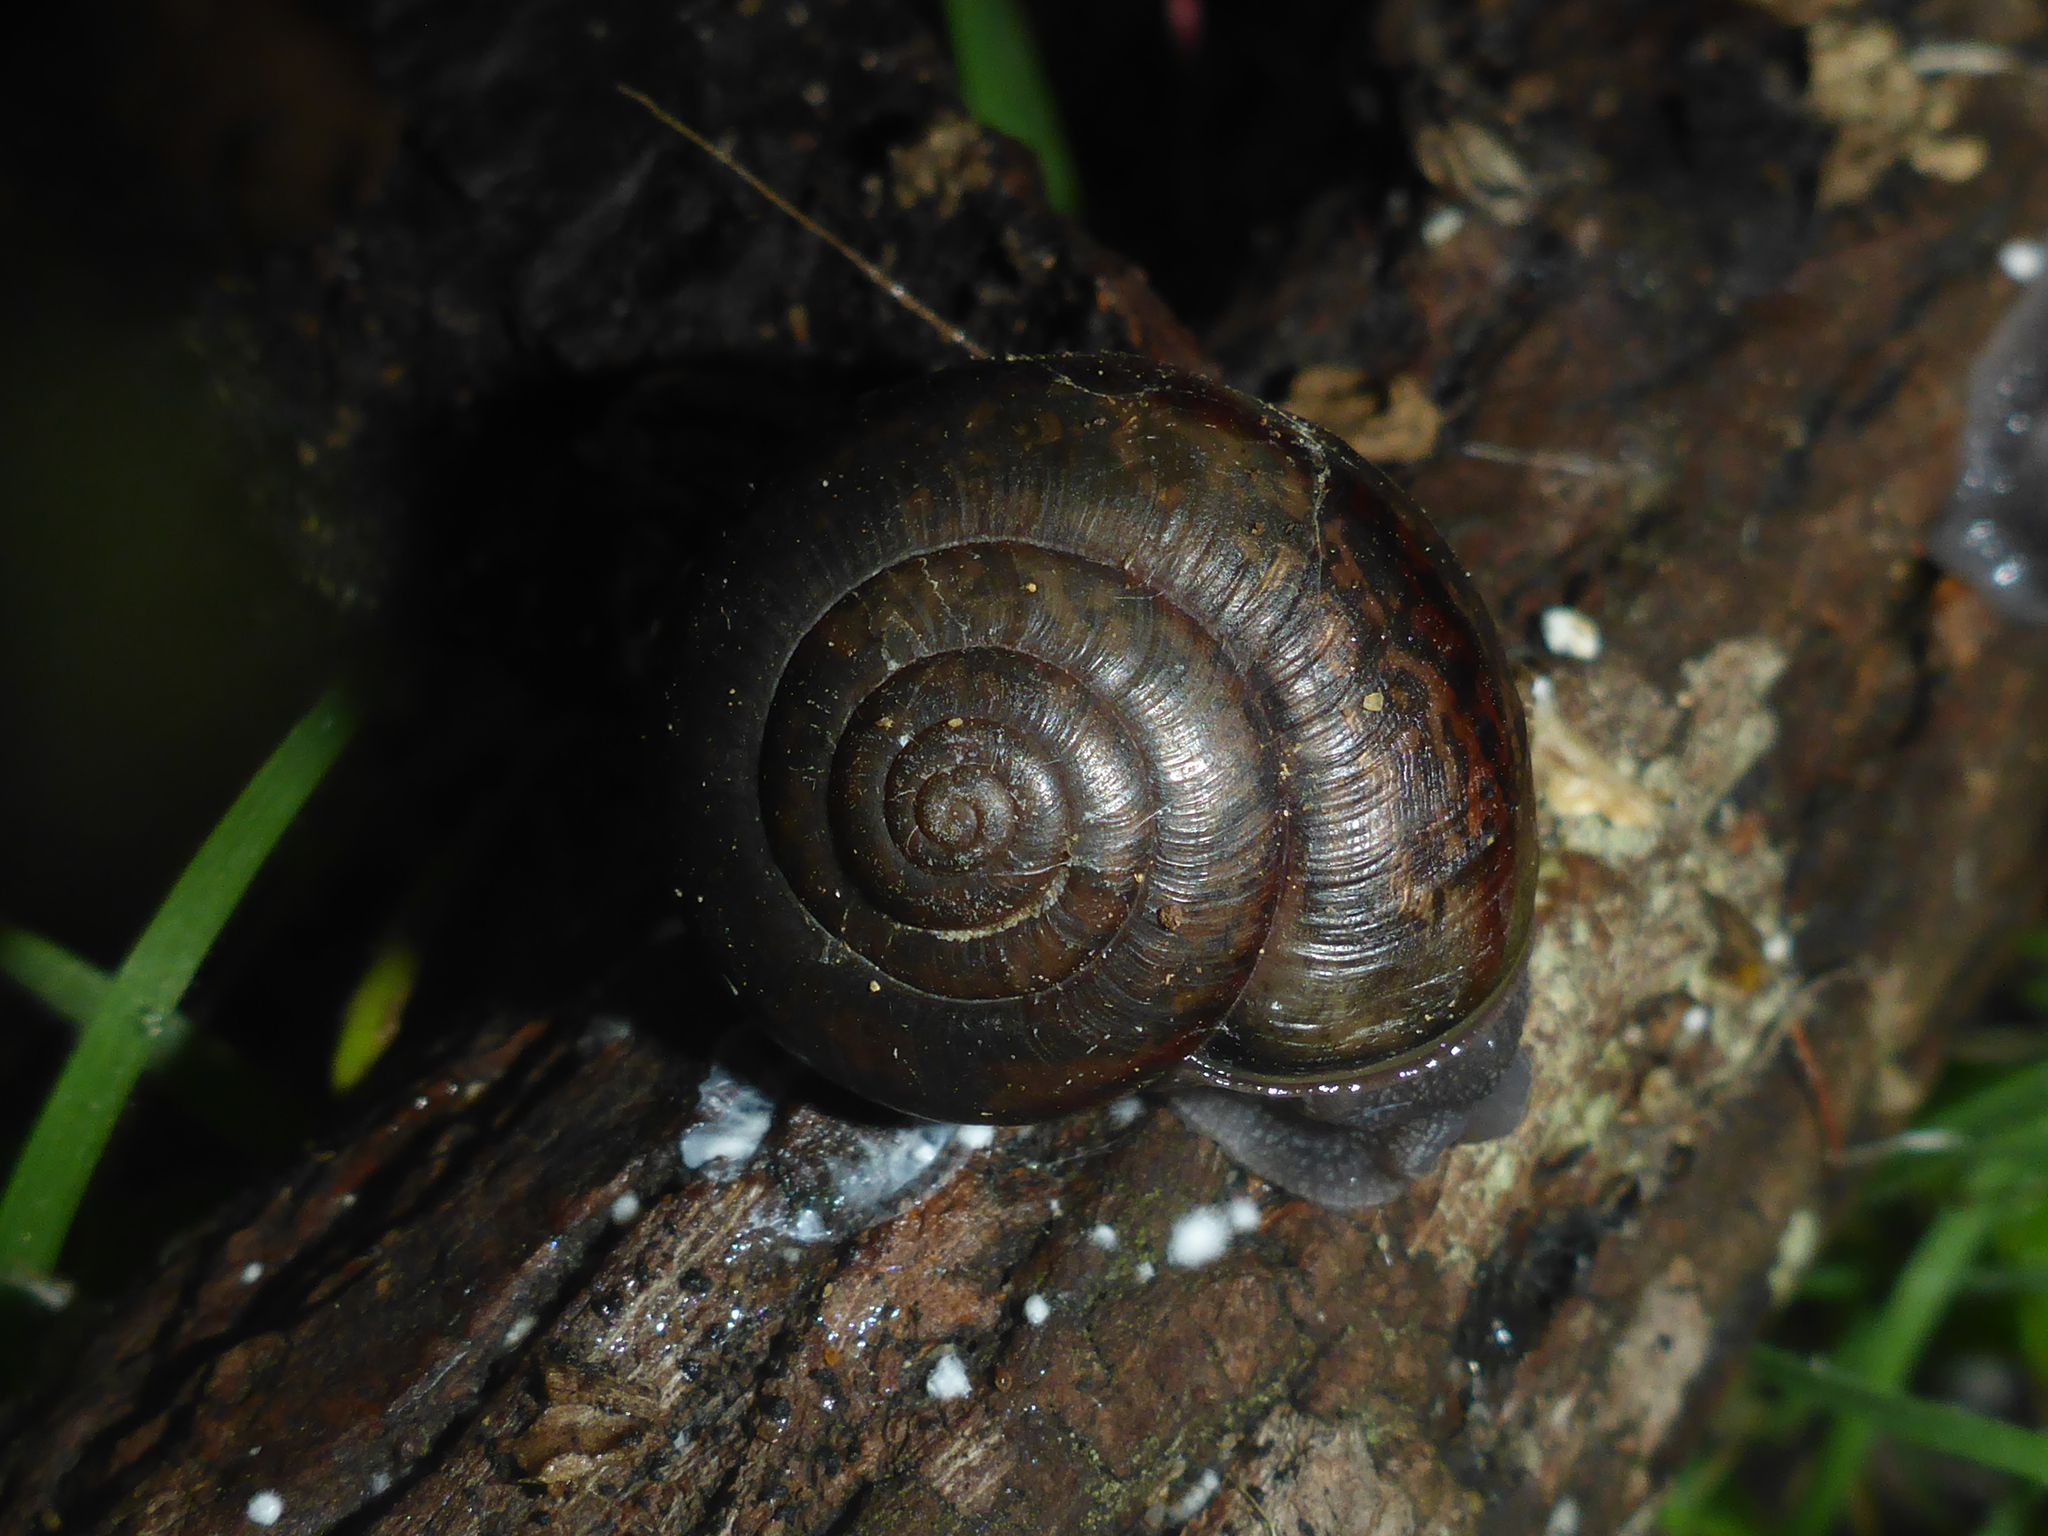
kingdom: Animalia
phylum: Mollusca
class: Gastropoda
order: Stylommatophora
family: Xanthonychidae
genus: Helminthoglypta
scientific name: Helminthoglypta phlyctaena
